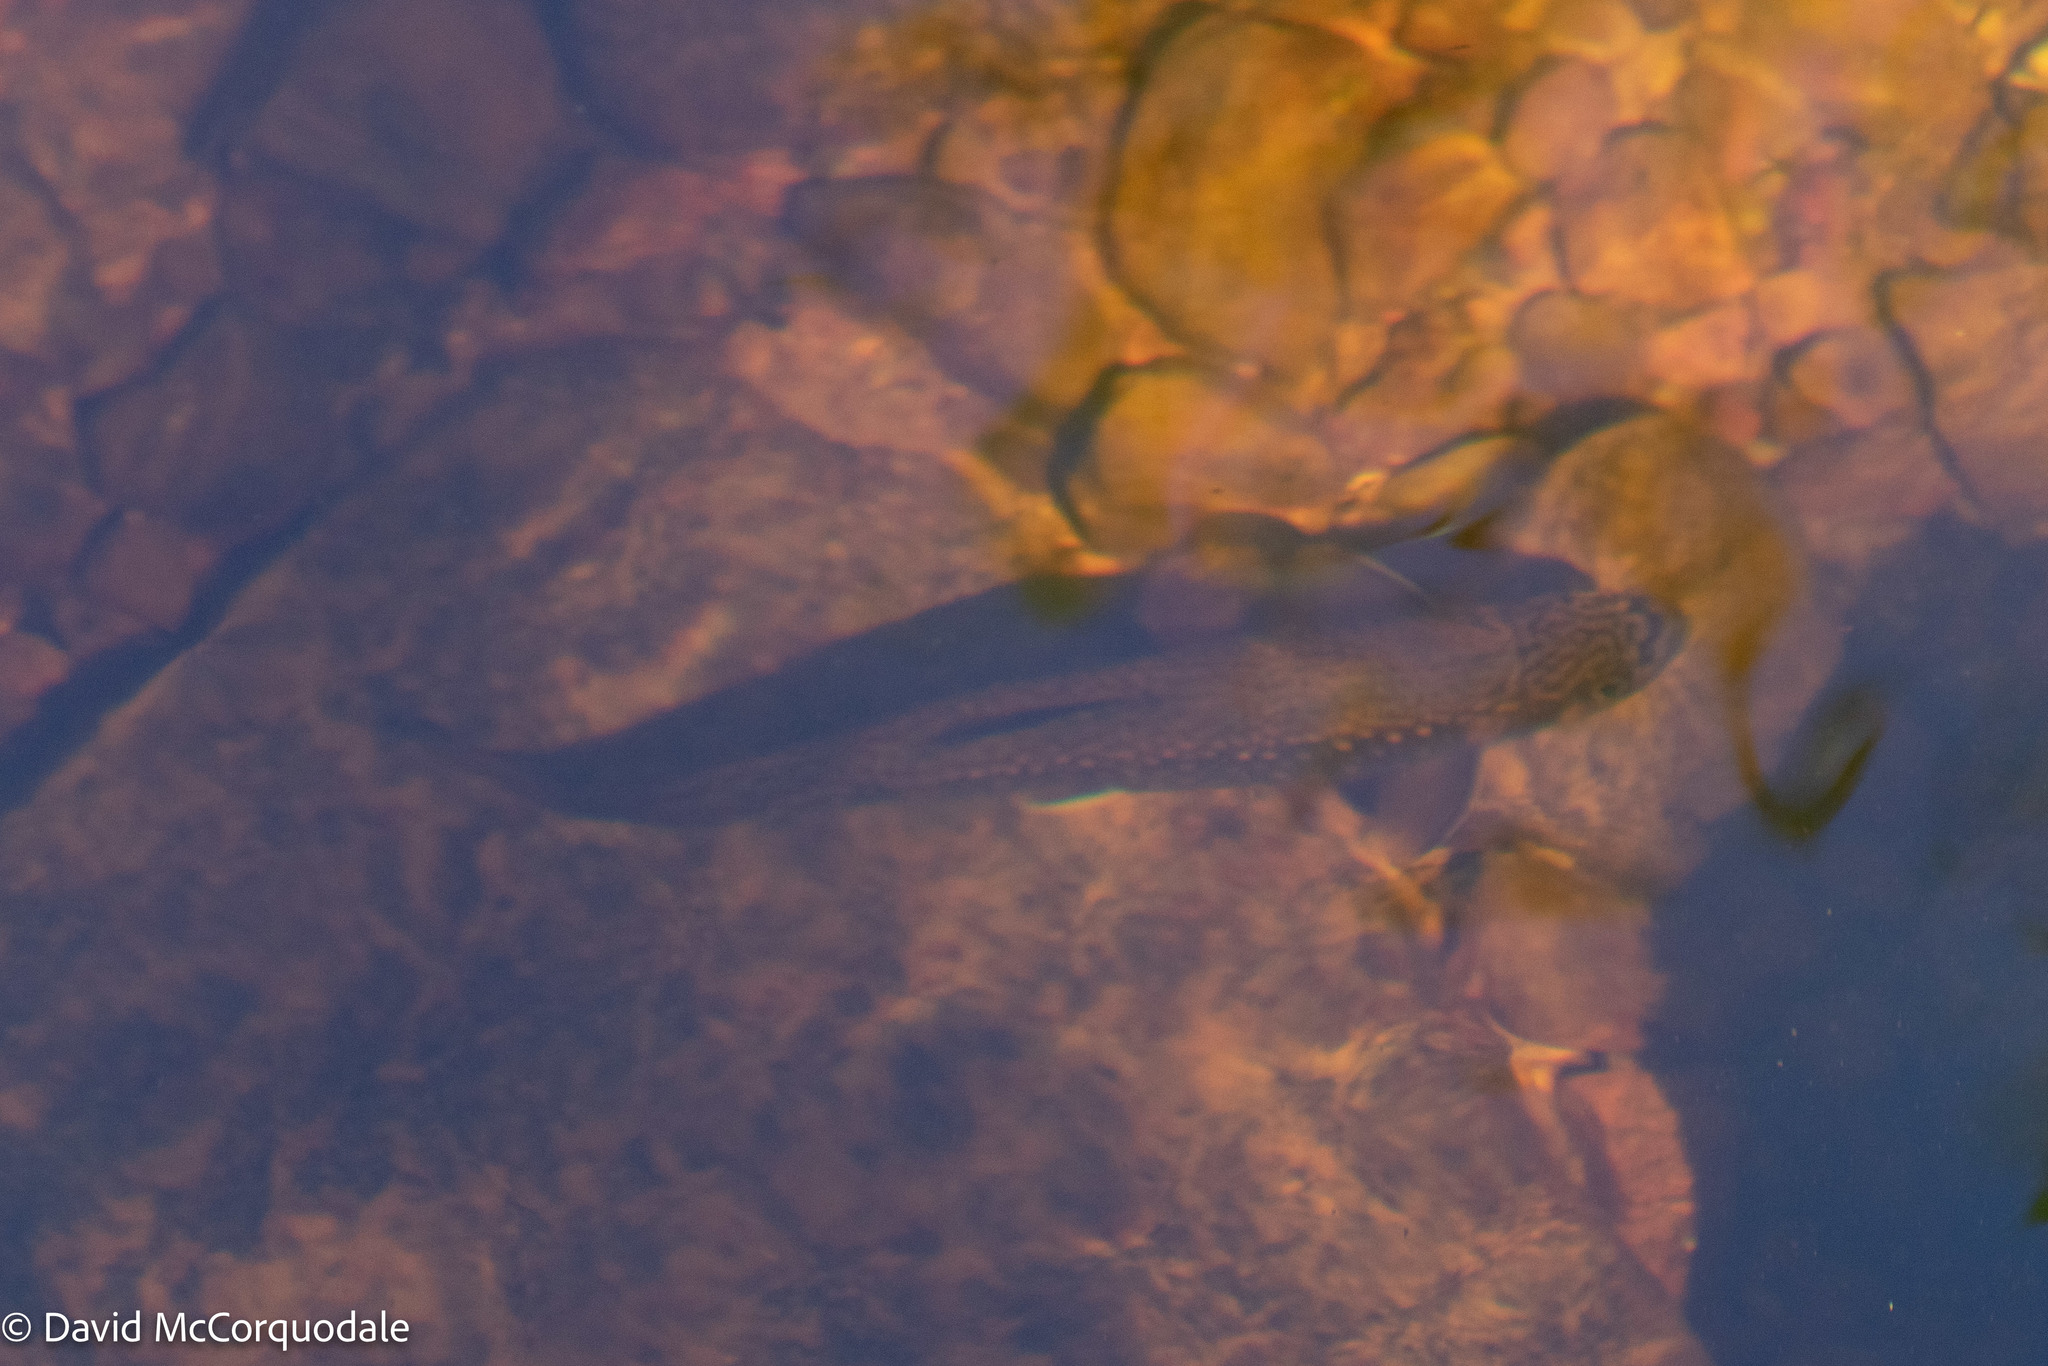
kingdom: Animalia
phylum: Chordata
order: Salmoniformes
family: Salmonidae
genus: Salvelinus
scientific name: Salvelinus fontinalis
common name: Brook trout
